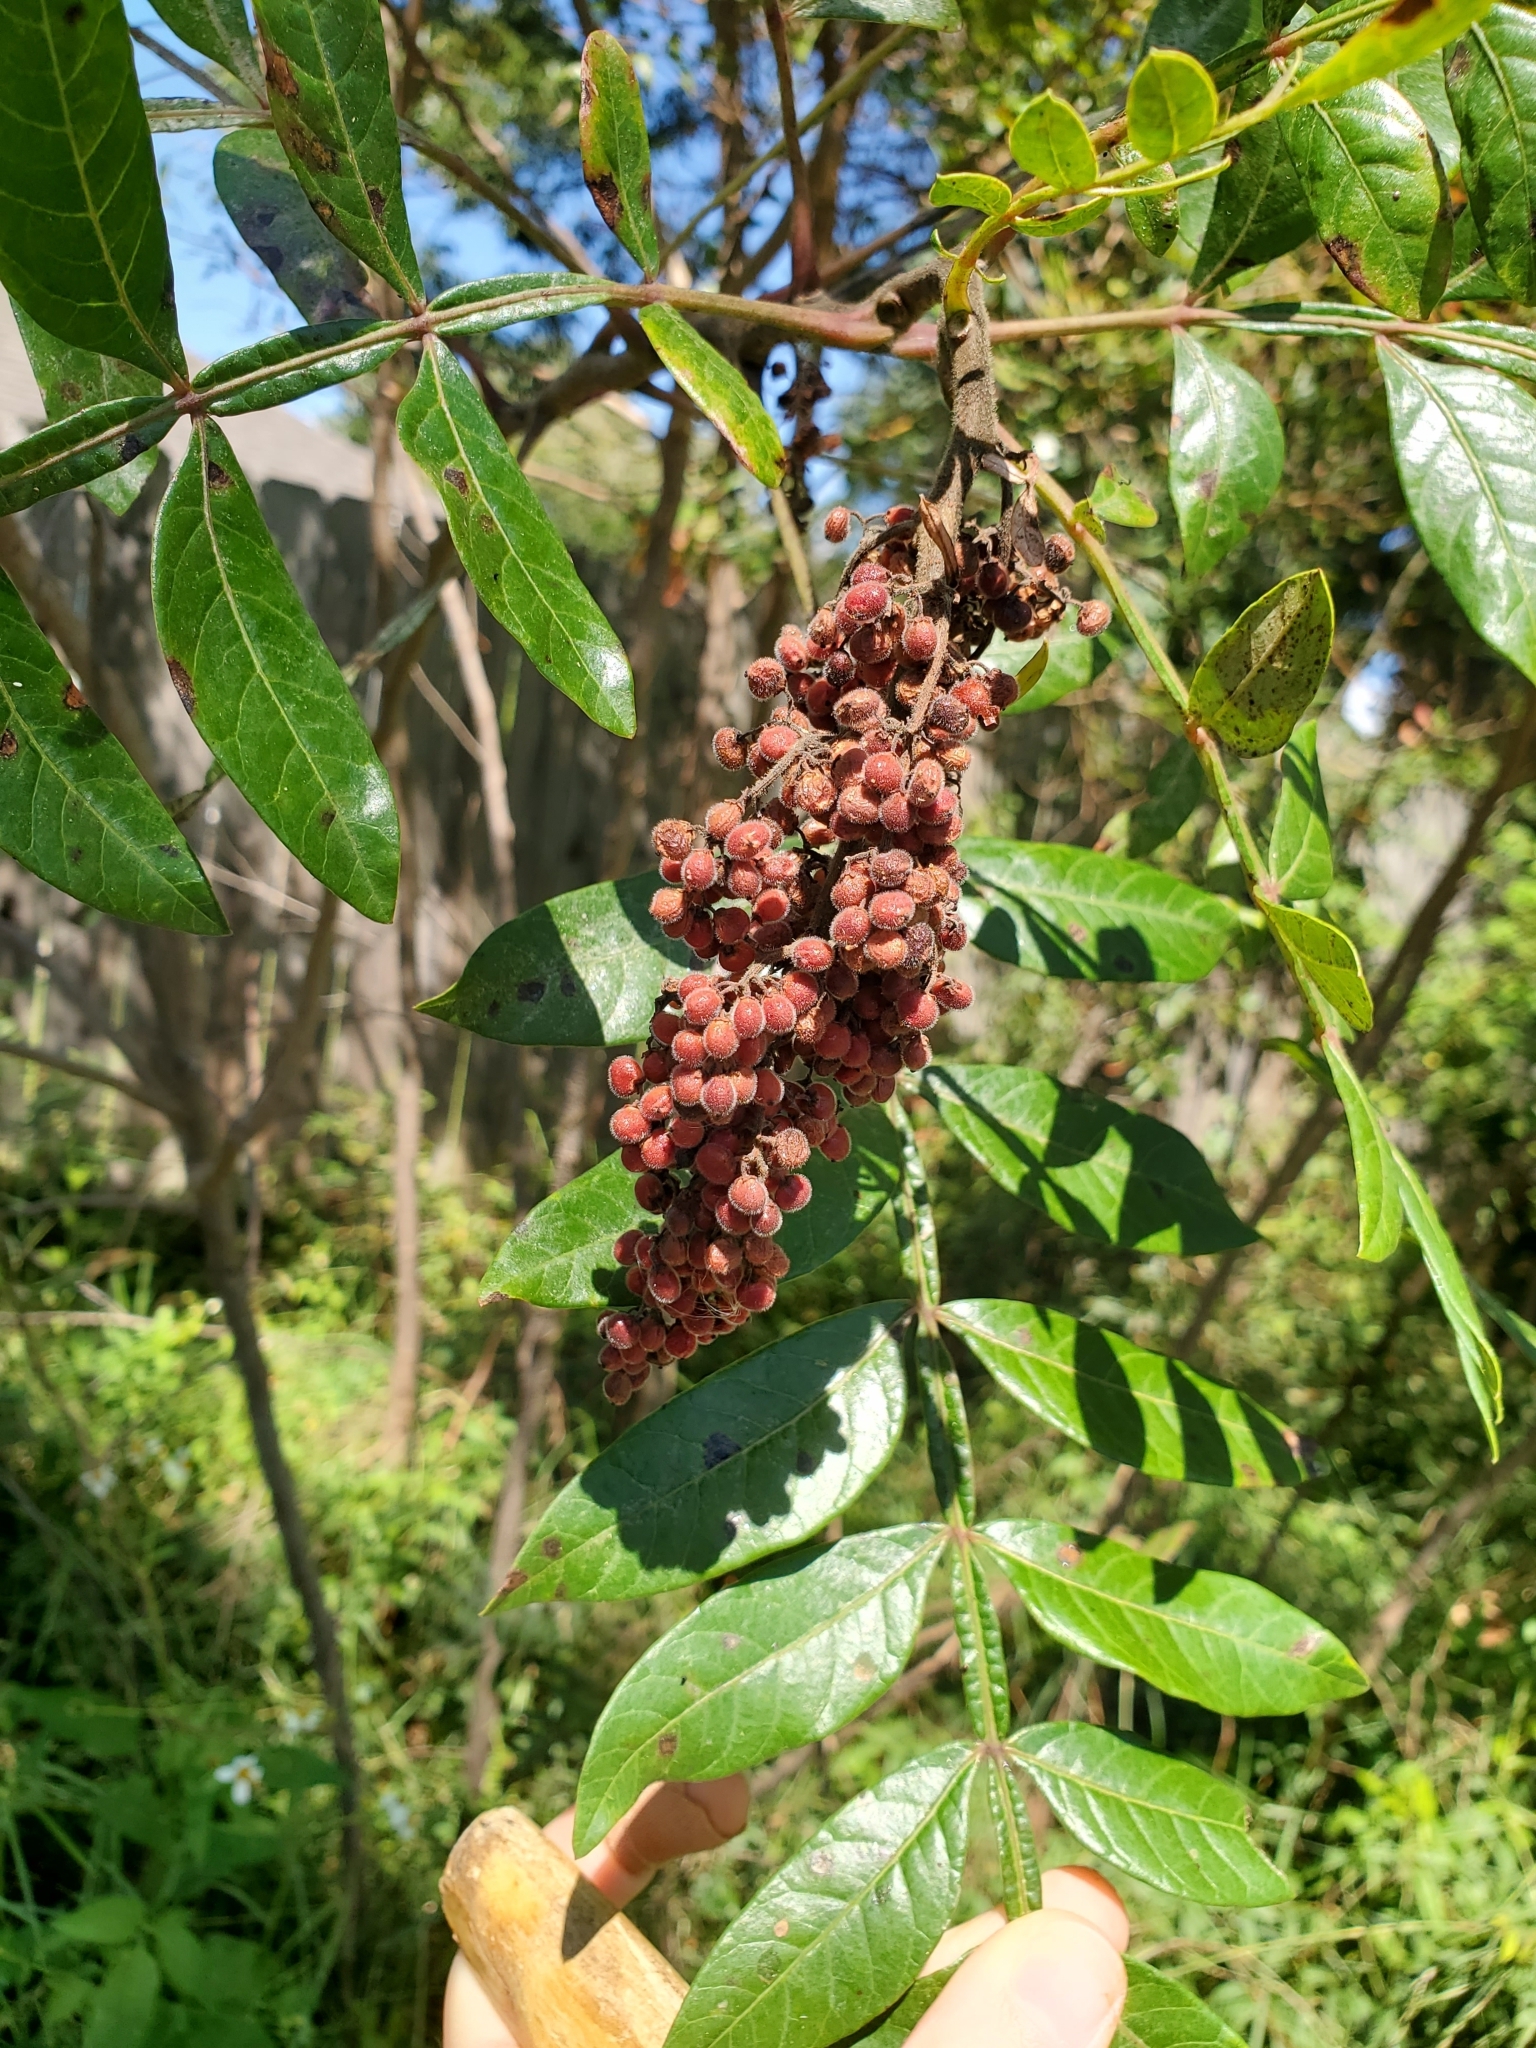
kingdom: Plantae
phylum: Tracheophyta
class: Magnoliopsida
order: Sapindales
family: Anacardiaceae
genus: Rhus
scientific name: Rhus copallina
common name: Shining sumac
